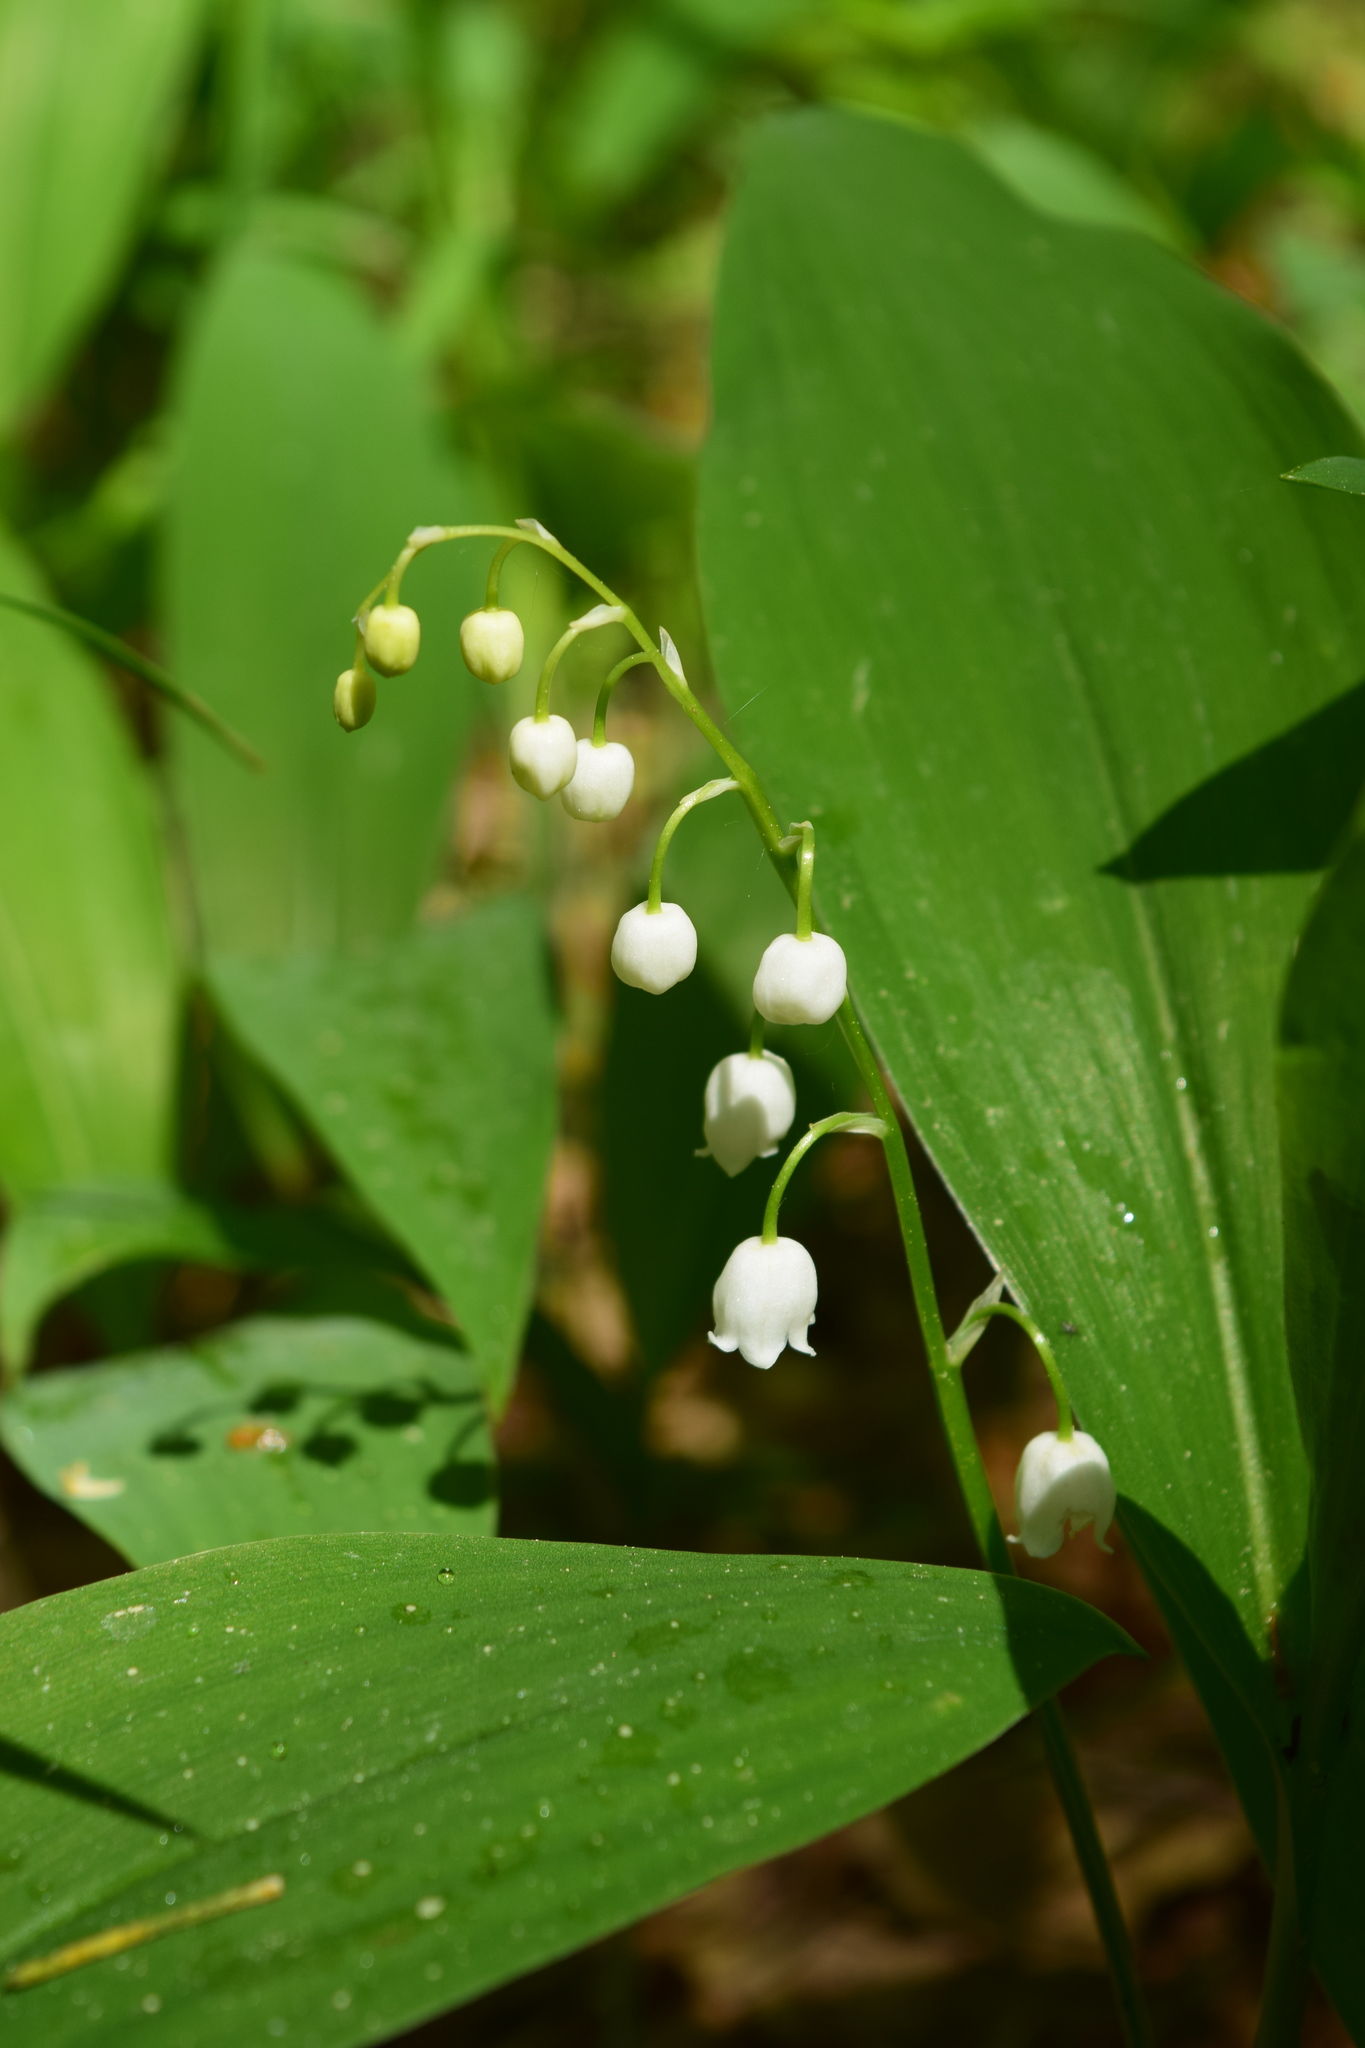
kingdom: Plantae
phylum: Tracheophyta
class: Liliopsida
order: Asparagales
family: Asparagaceae
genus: Convallaria
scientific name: Convallaria majalis
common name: Lily-of-the-valley
